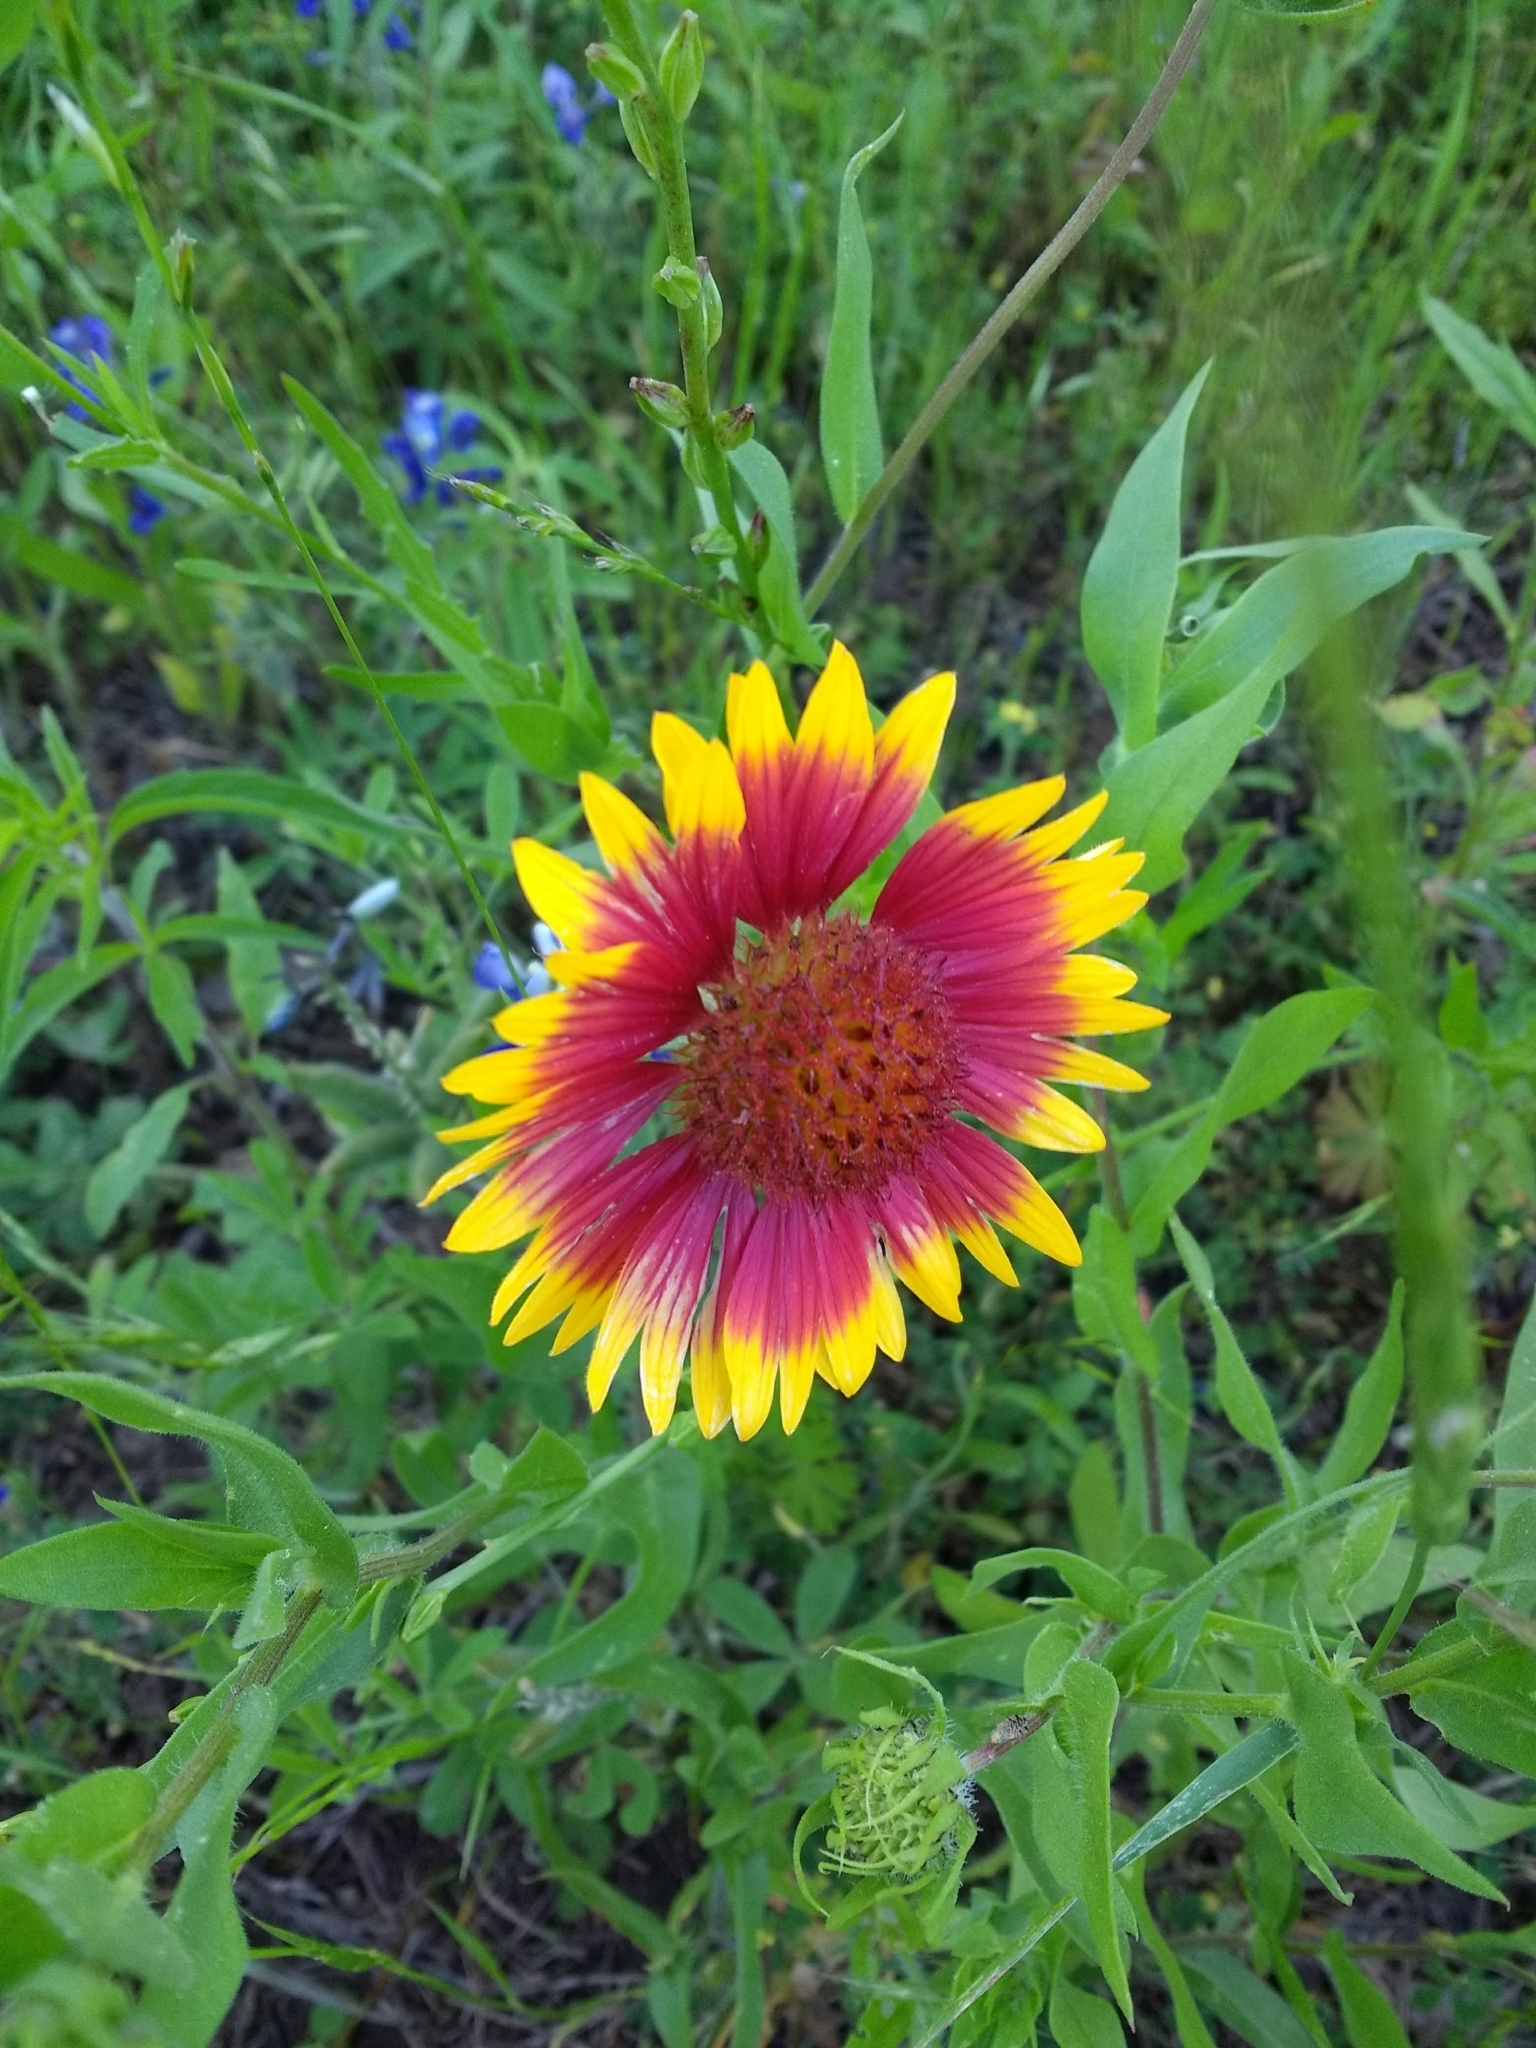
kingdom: Plantae
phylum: Tracheophyta
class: Magnoliopsida
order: Asterales
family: Asteraceae
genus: Gaillardia
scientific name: Gaillardia pulchella
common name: Firewheel
